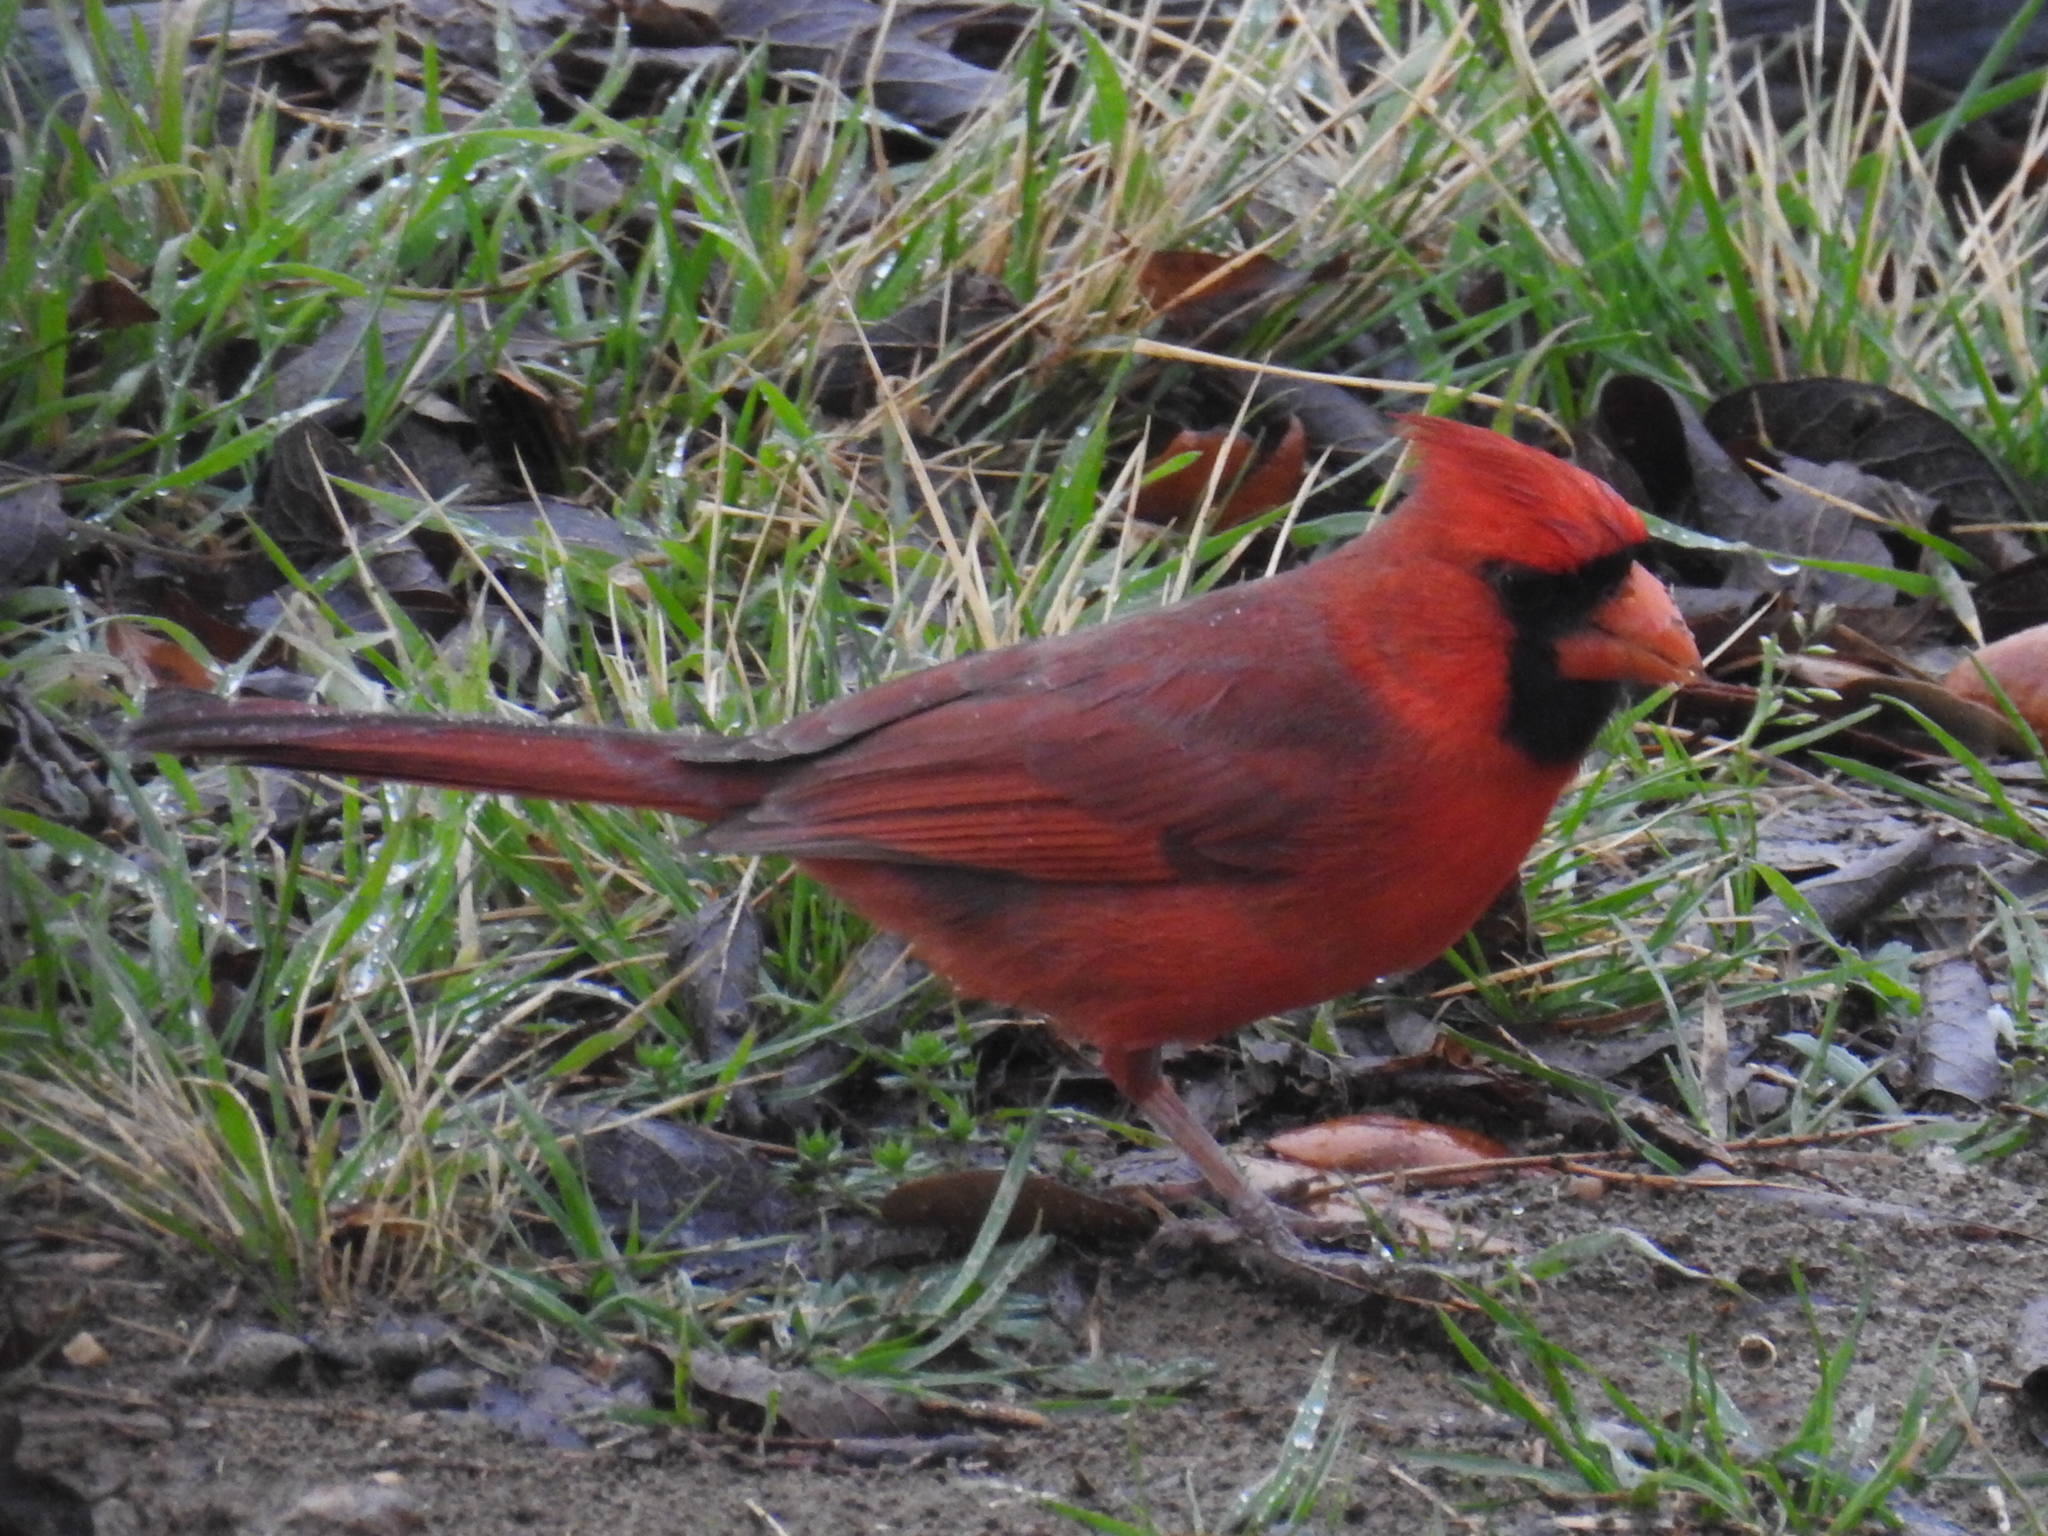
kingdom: Animalia
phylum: Chordata
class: Aves
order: Passeriformes
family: Cardinalidae
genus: Cardinalis
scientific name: Cardinalis cardinalis
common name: Northern cardinal
